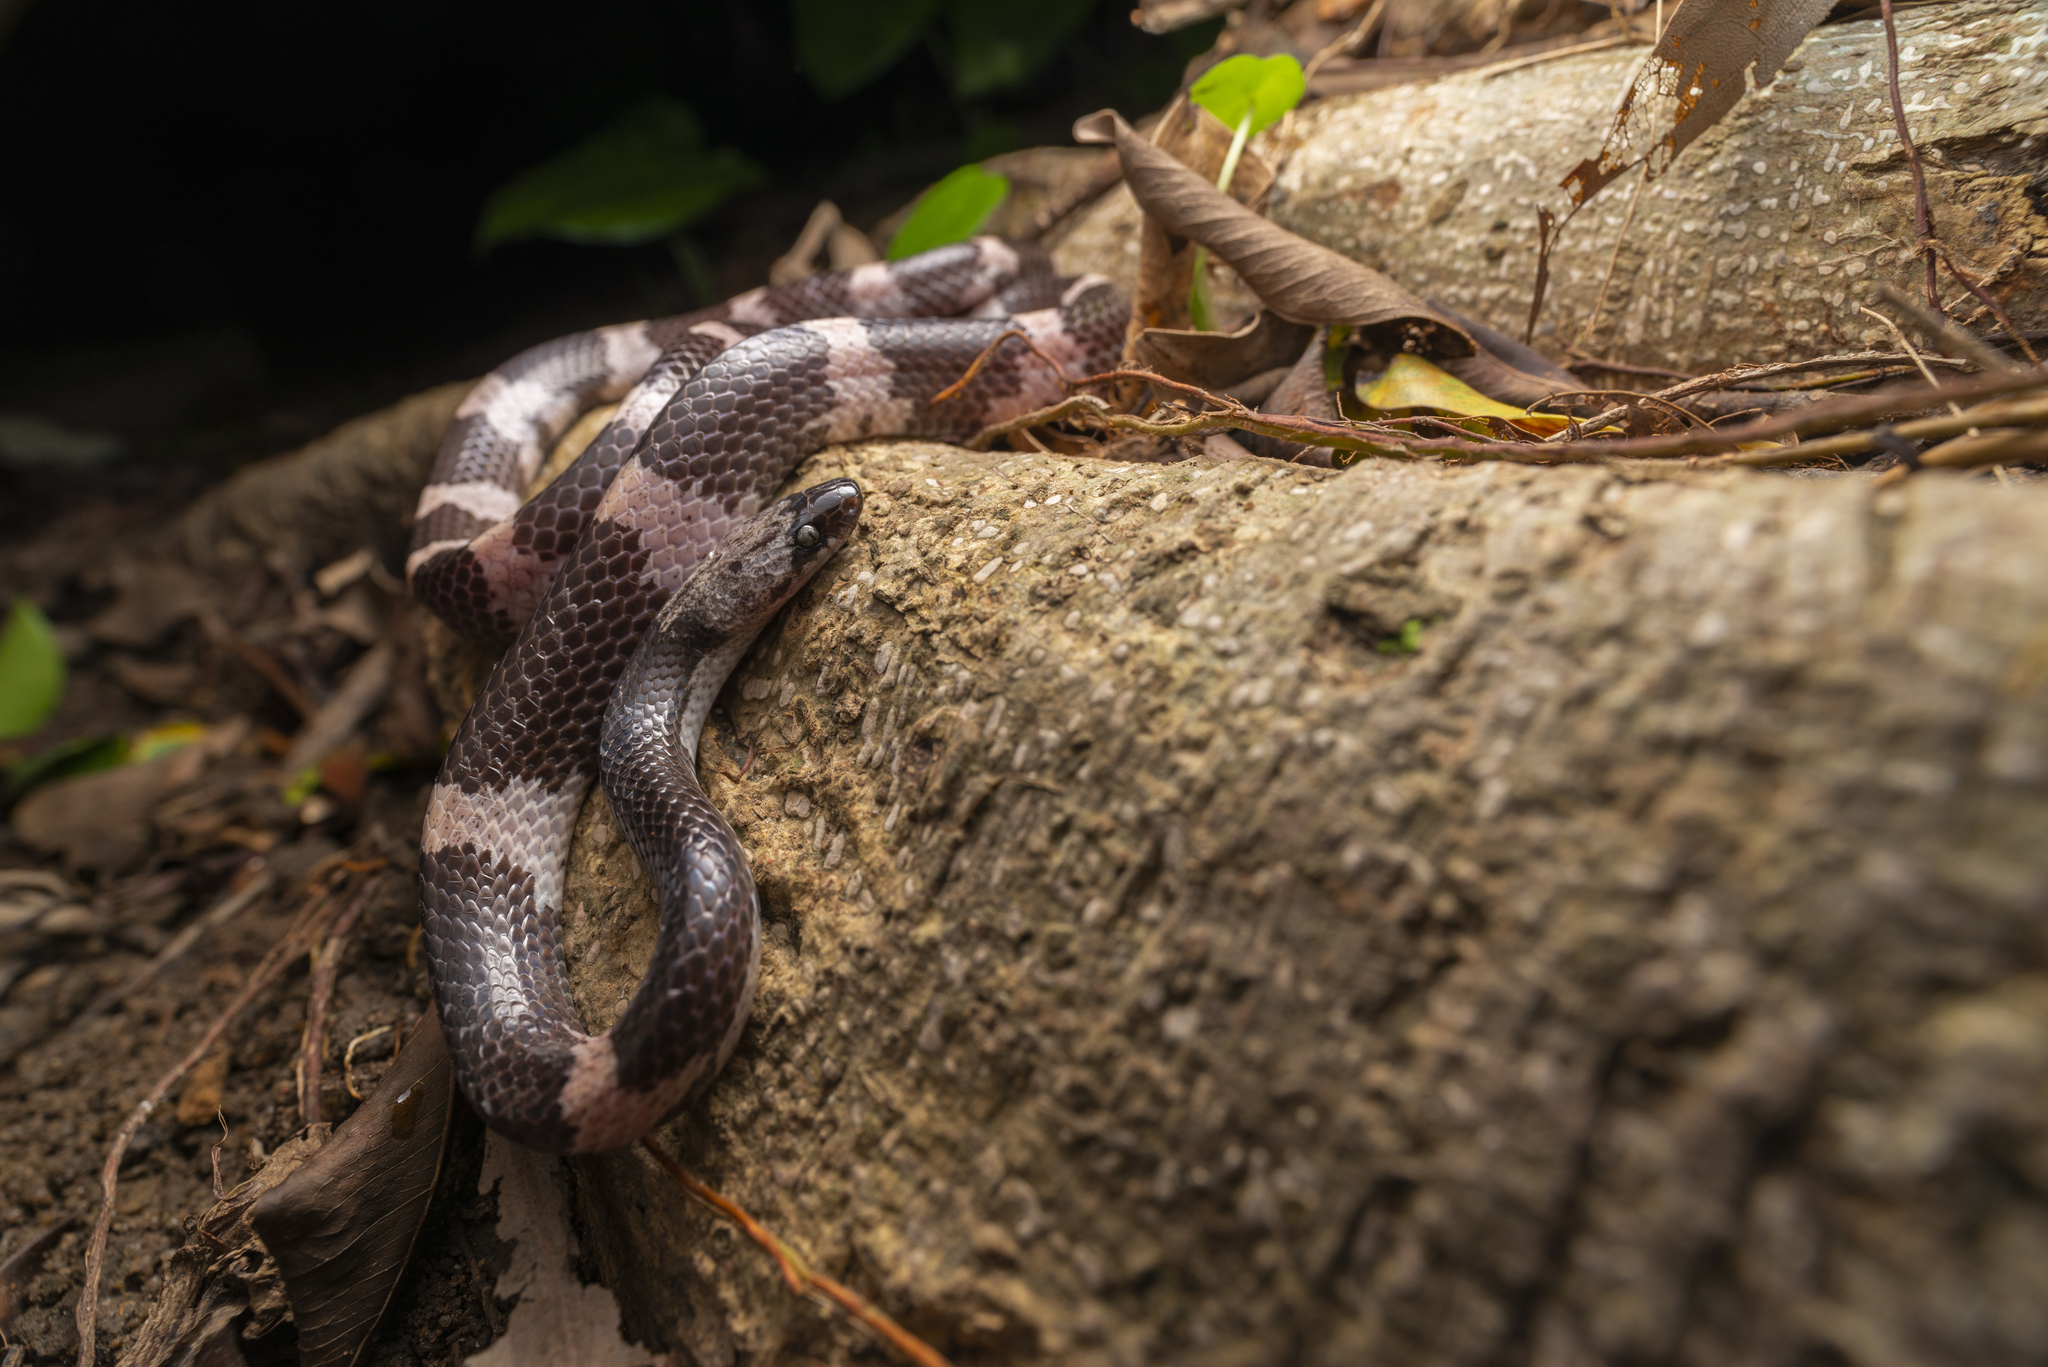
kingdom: Animalia
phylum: Chordata
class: Squamata
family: Colubridae
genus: Lycodon
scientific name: Lycodon futsingensis
